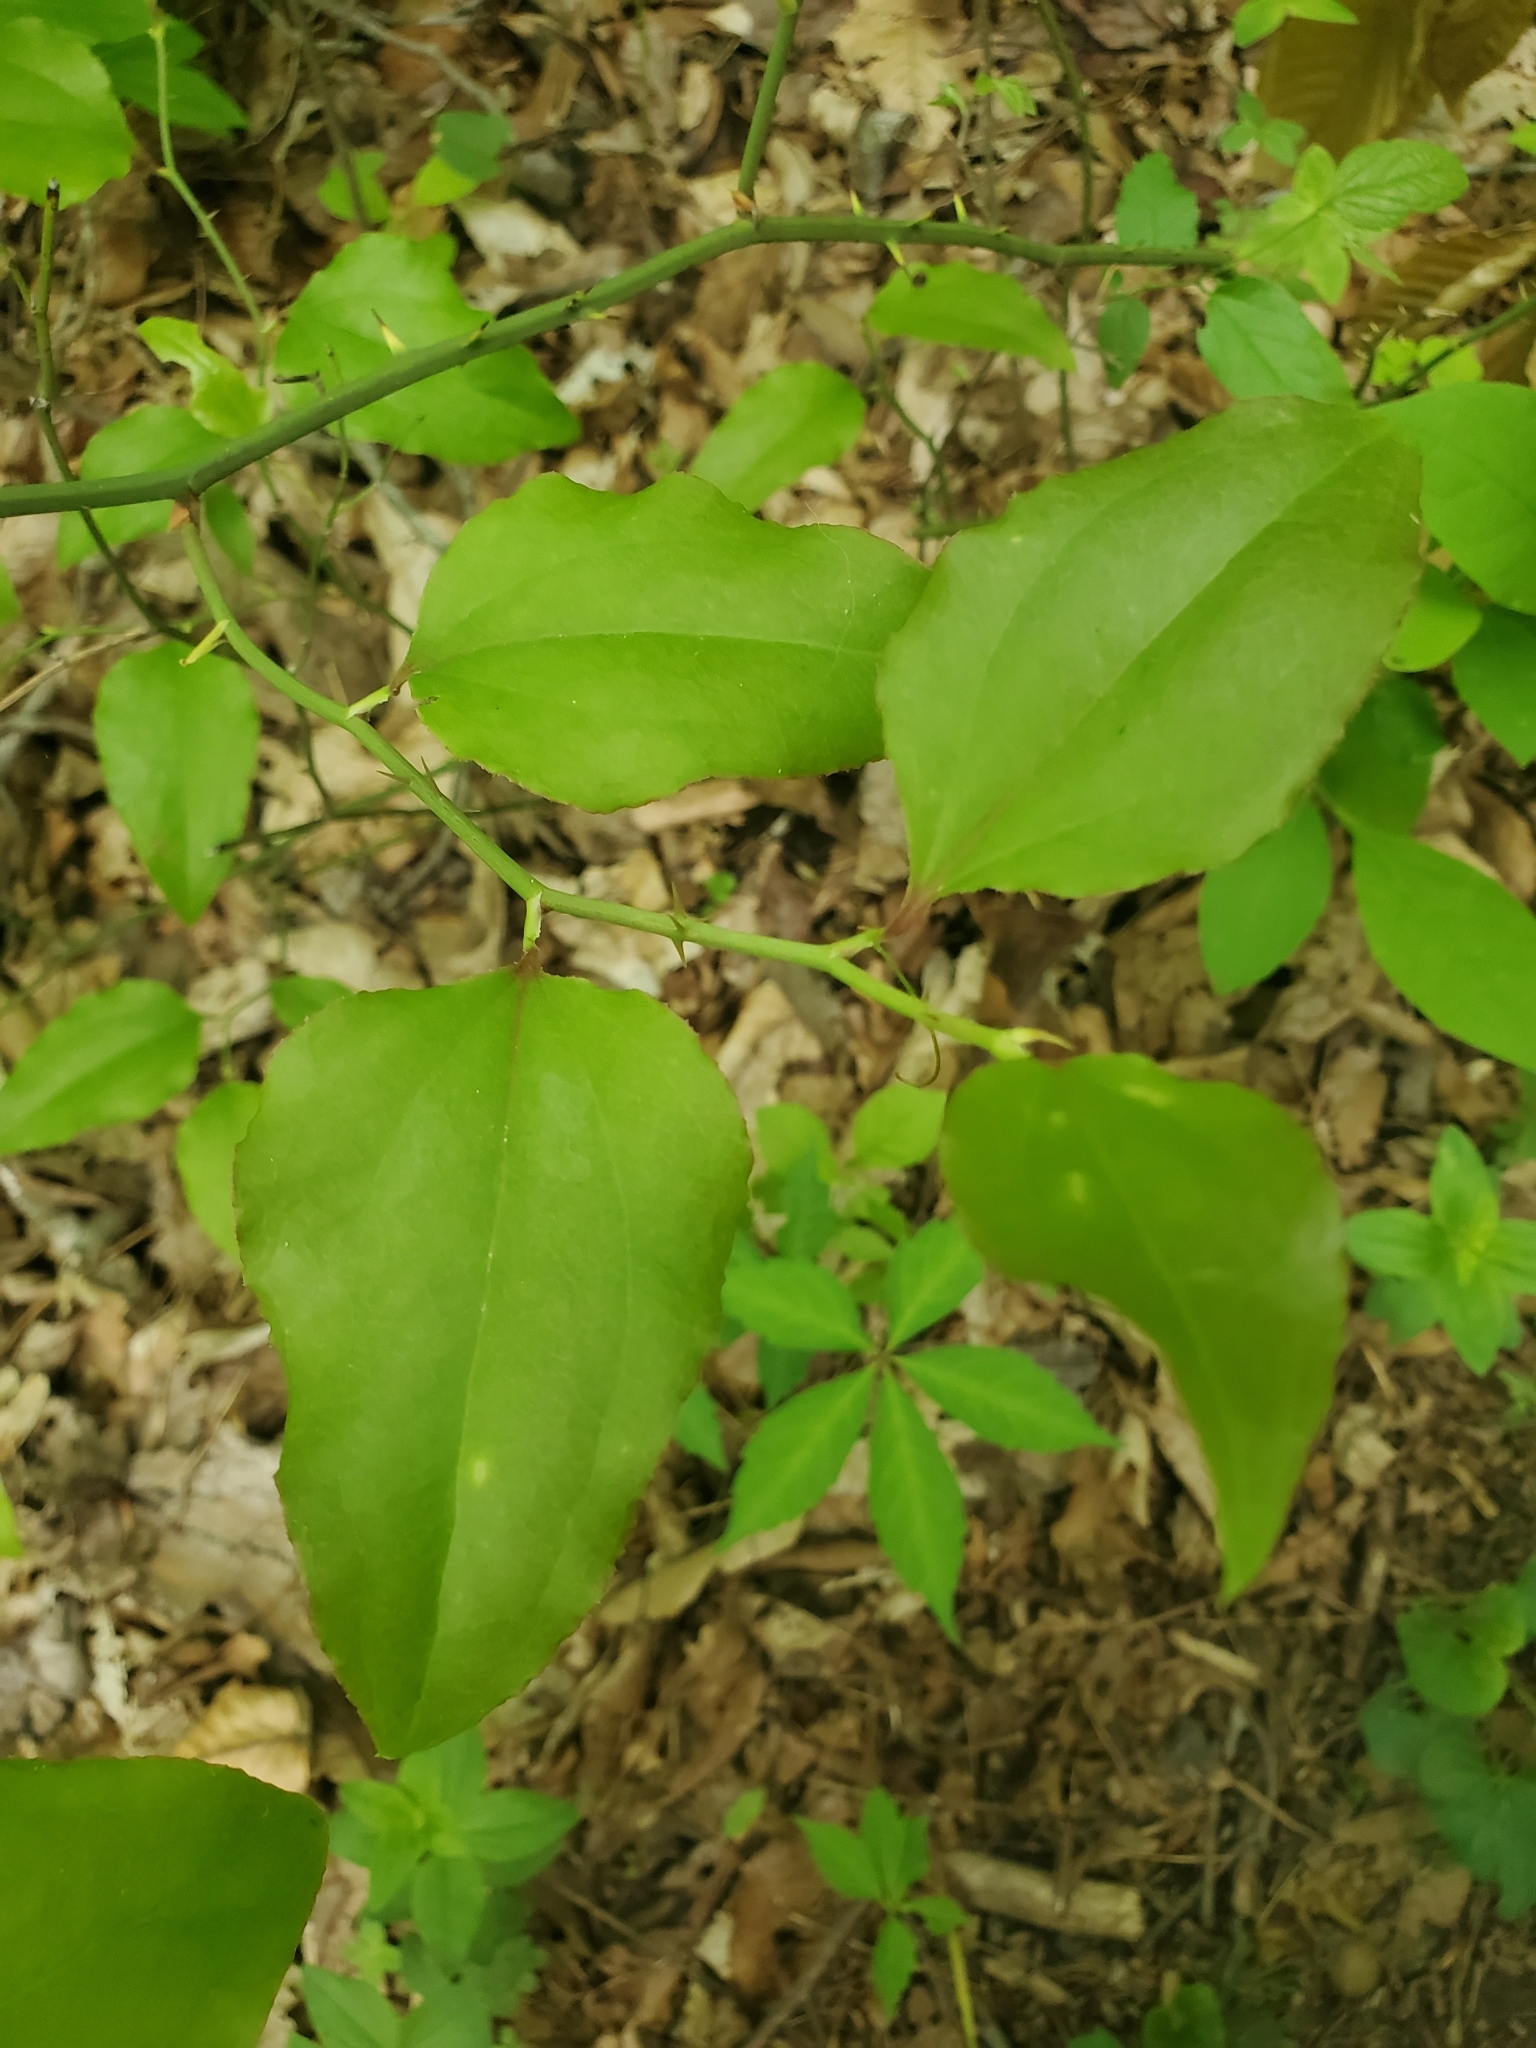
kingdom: Plantae
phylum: Tracheophyta
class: Liliopsida
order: Liliales
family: Smilacaceae
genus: Smilax
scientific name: Smilax rotundifolia
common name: Bullbriar
